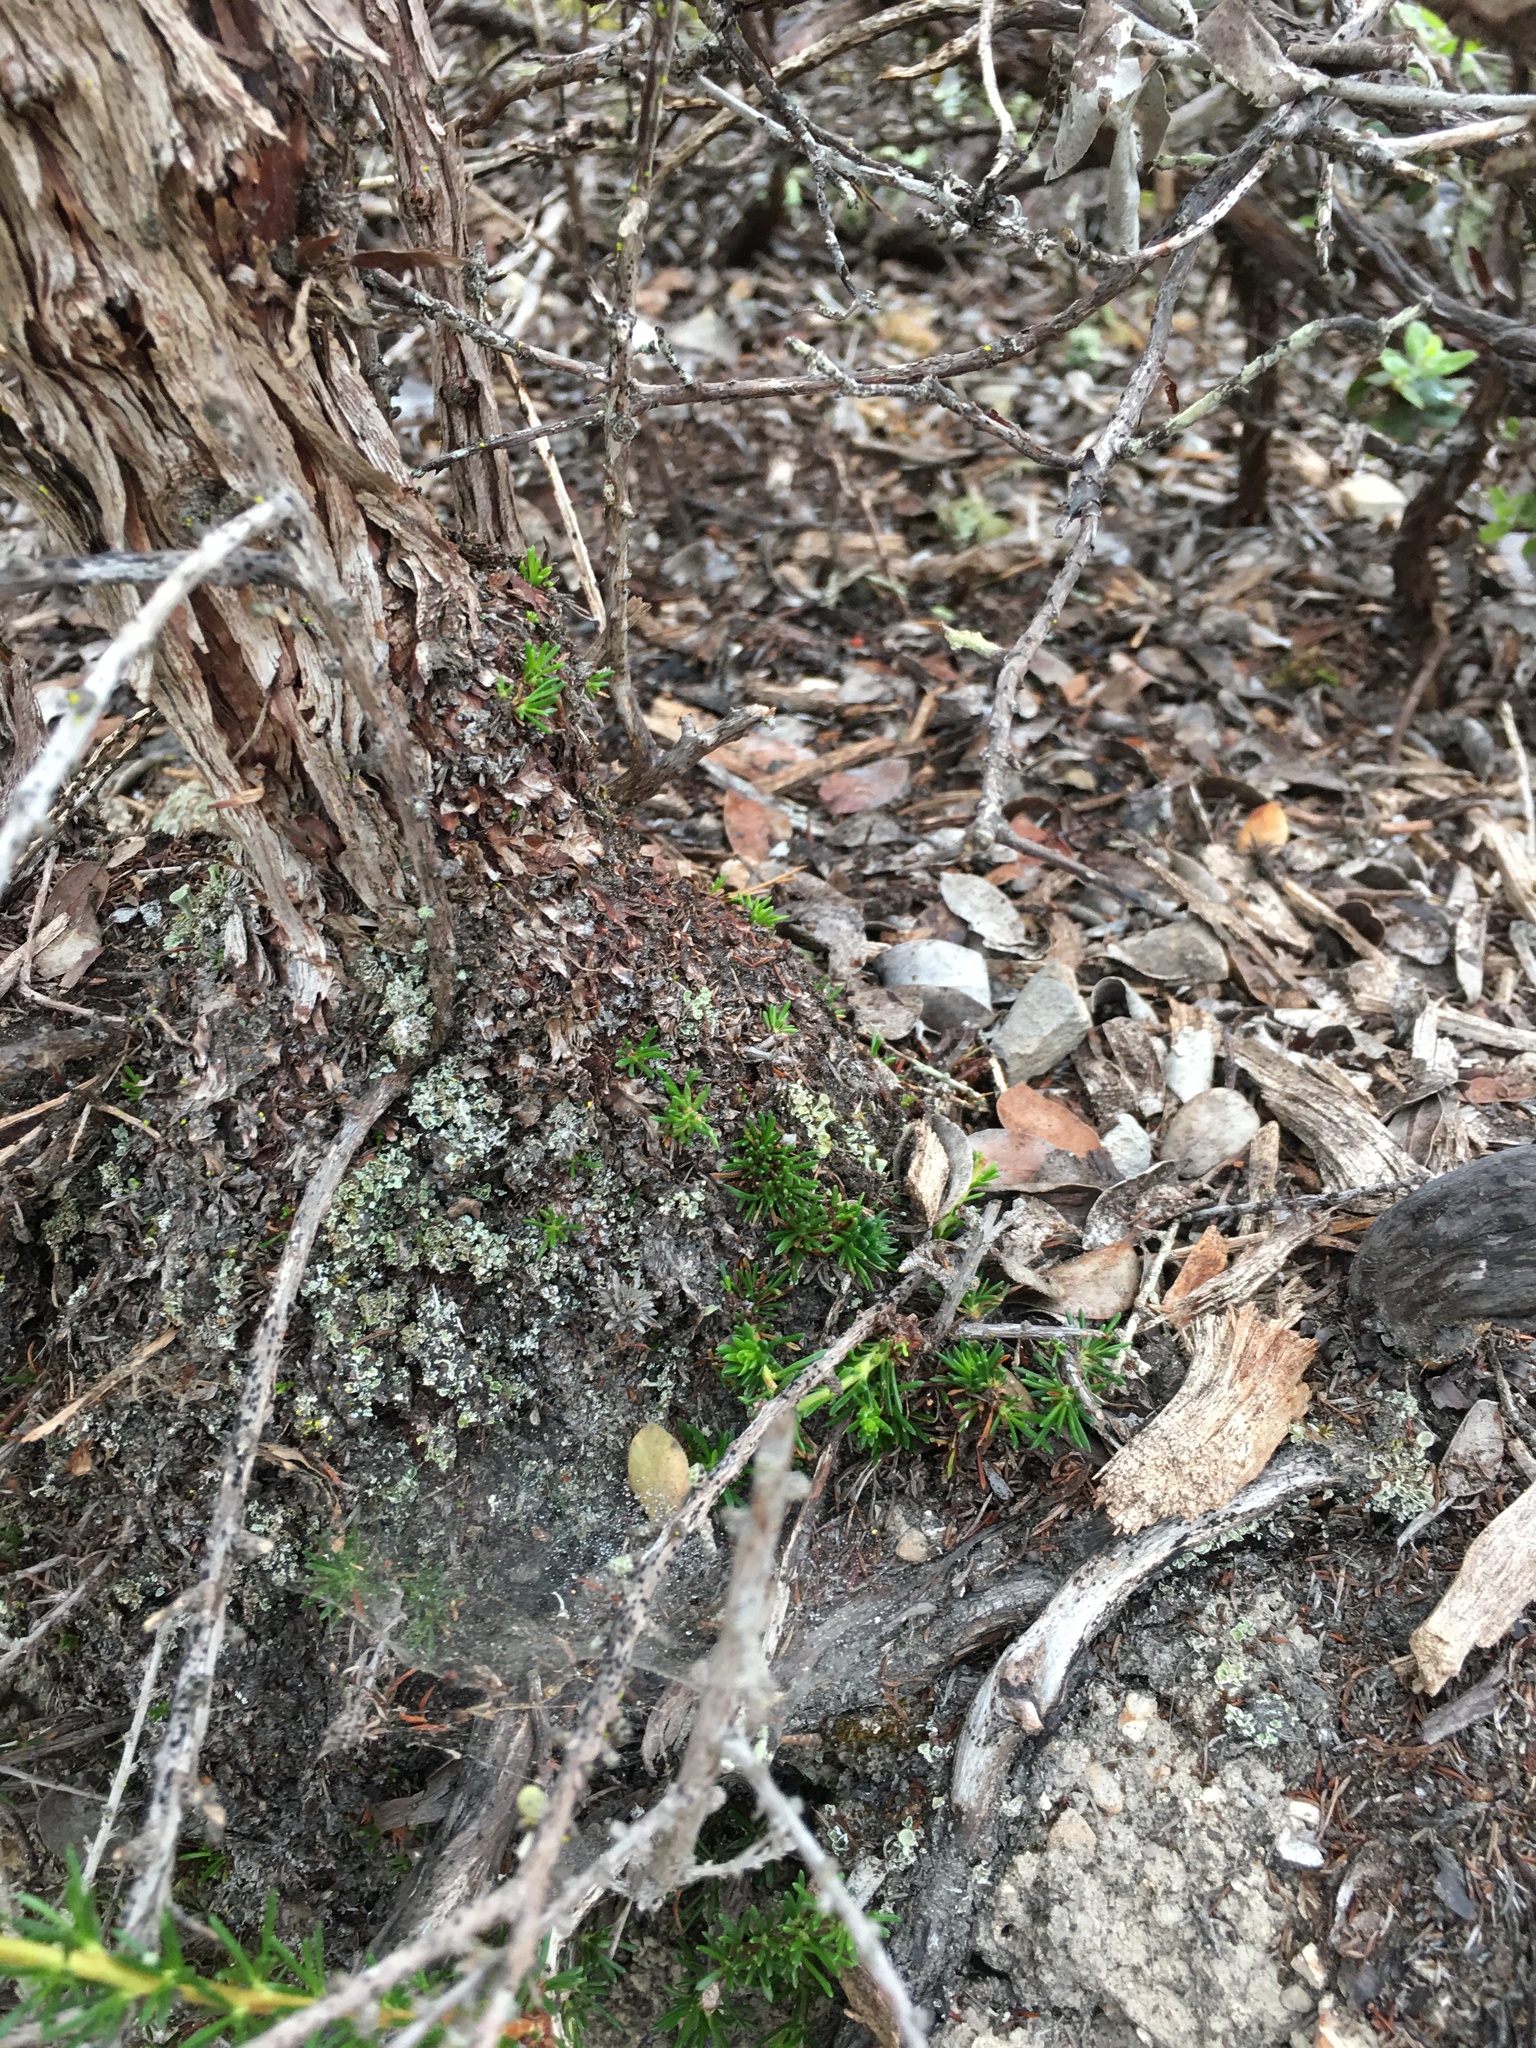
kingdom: Plantae
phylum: Tracheophyta
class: Magnoliopsida
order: Rosales
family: Rosaceae
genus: Adenostoma
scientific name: Adenostoma fasciculatum
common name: Chamise
